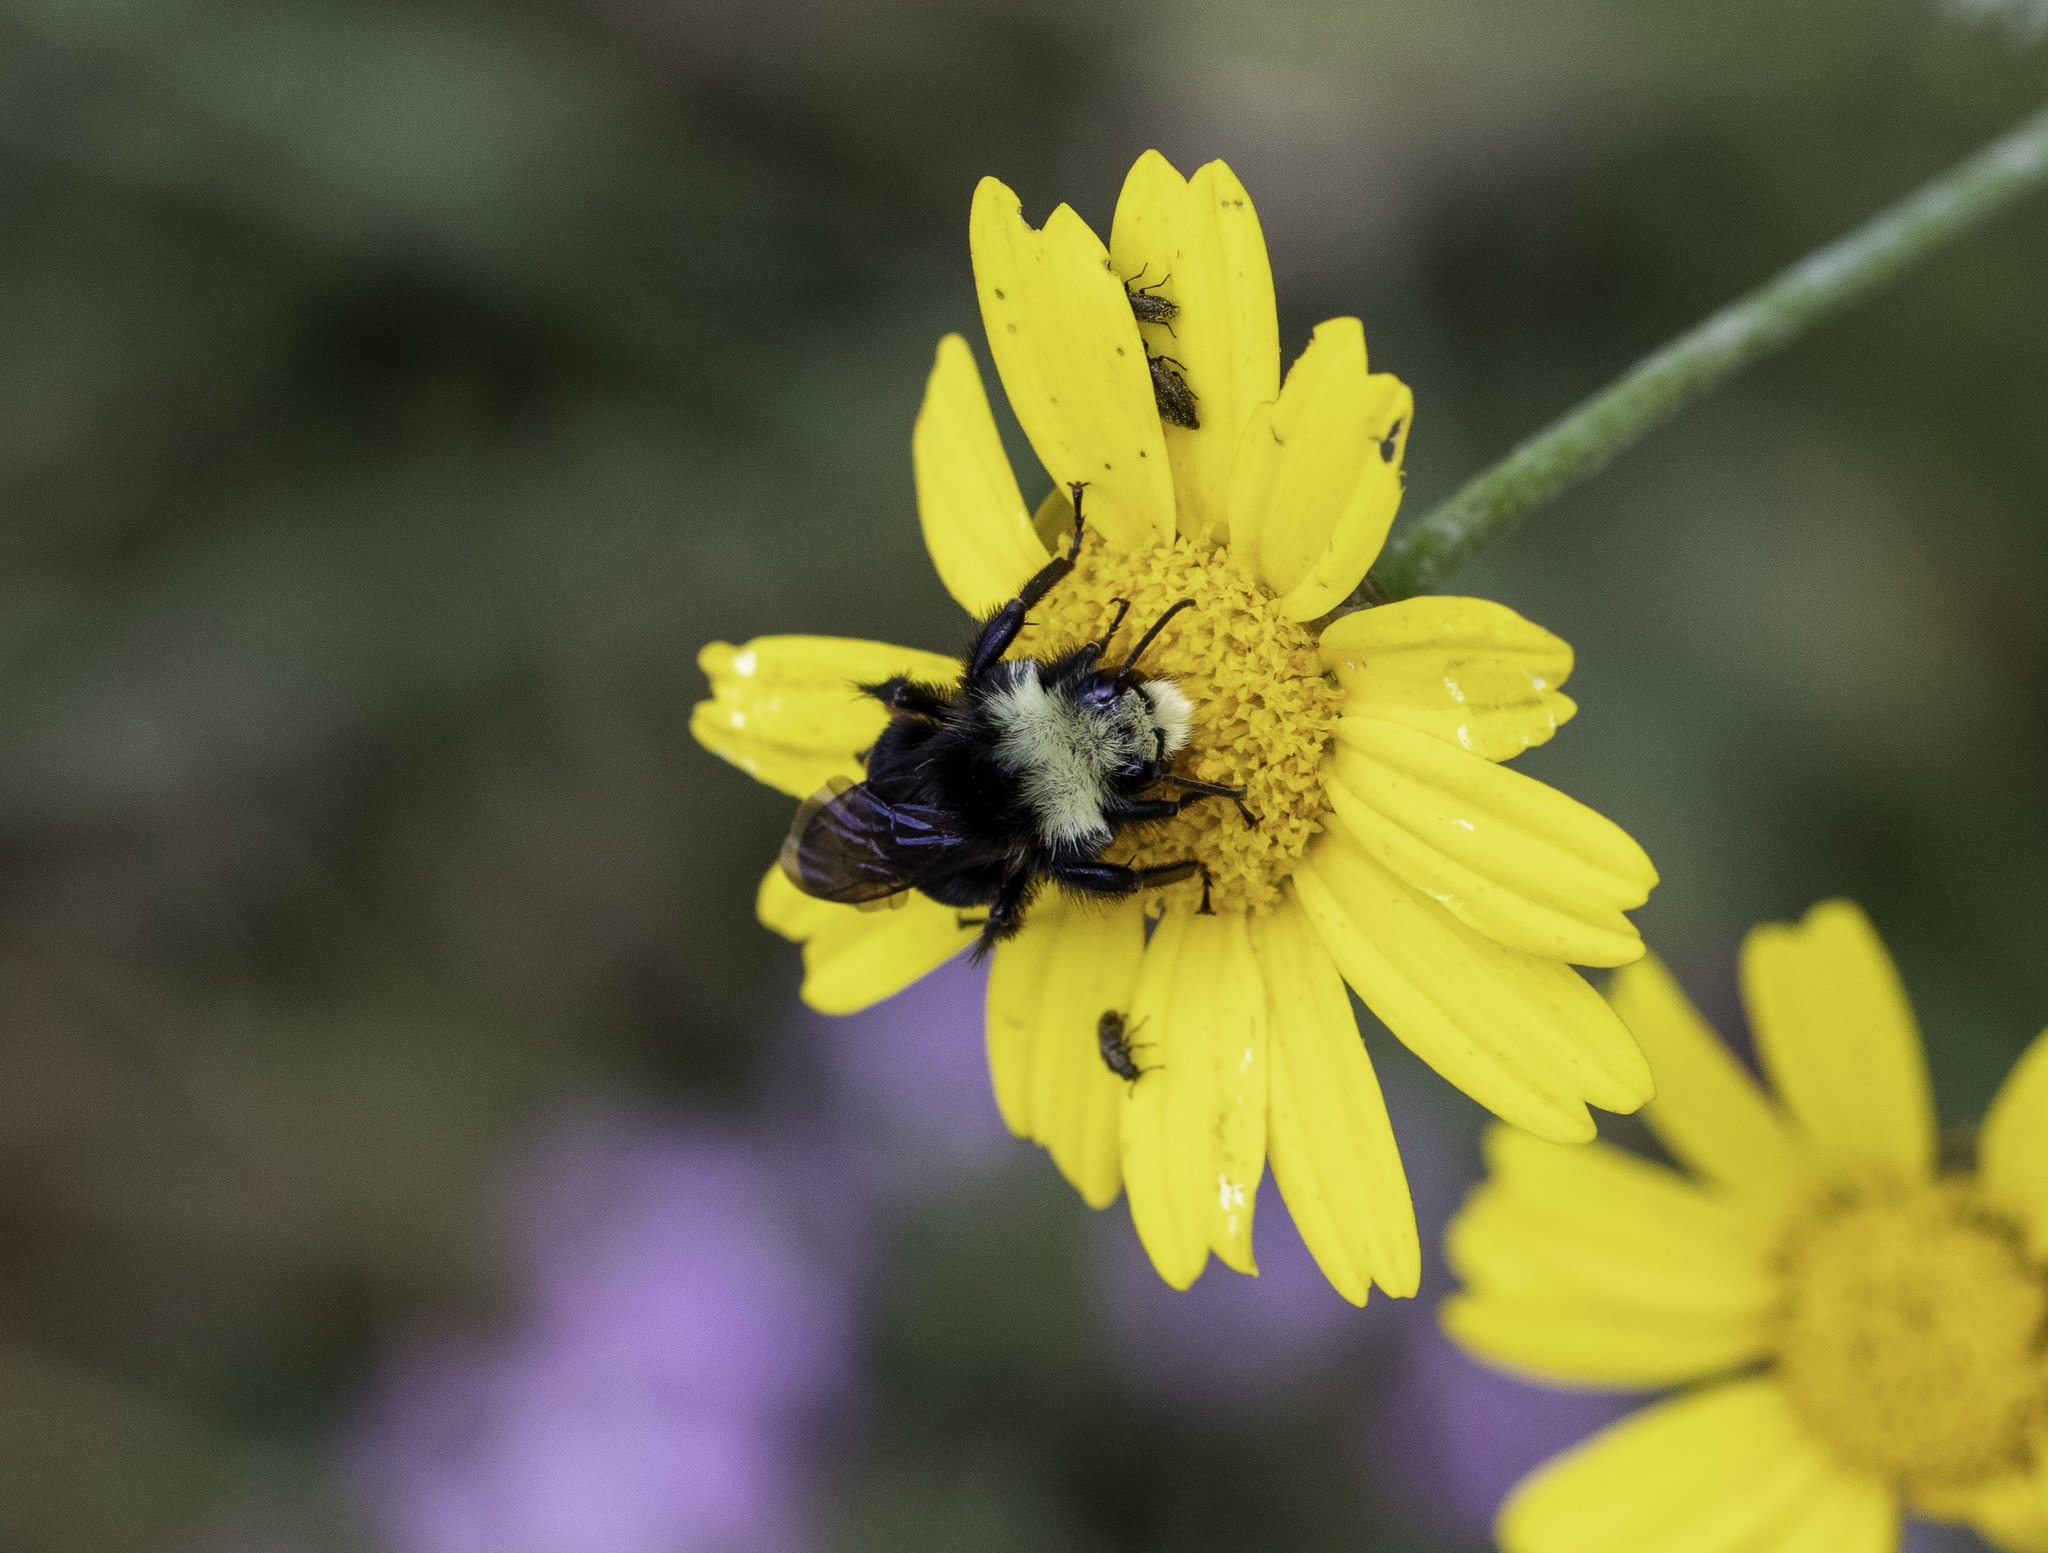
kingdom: Animalia
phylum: Arthropoda
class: Insecta
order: Hymenoptera
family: Apidae
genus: Bombus
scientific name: Bombus vosnesenskii
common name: Vosnesensky bumble bee
